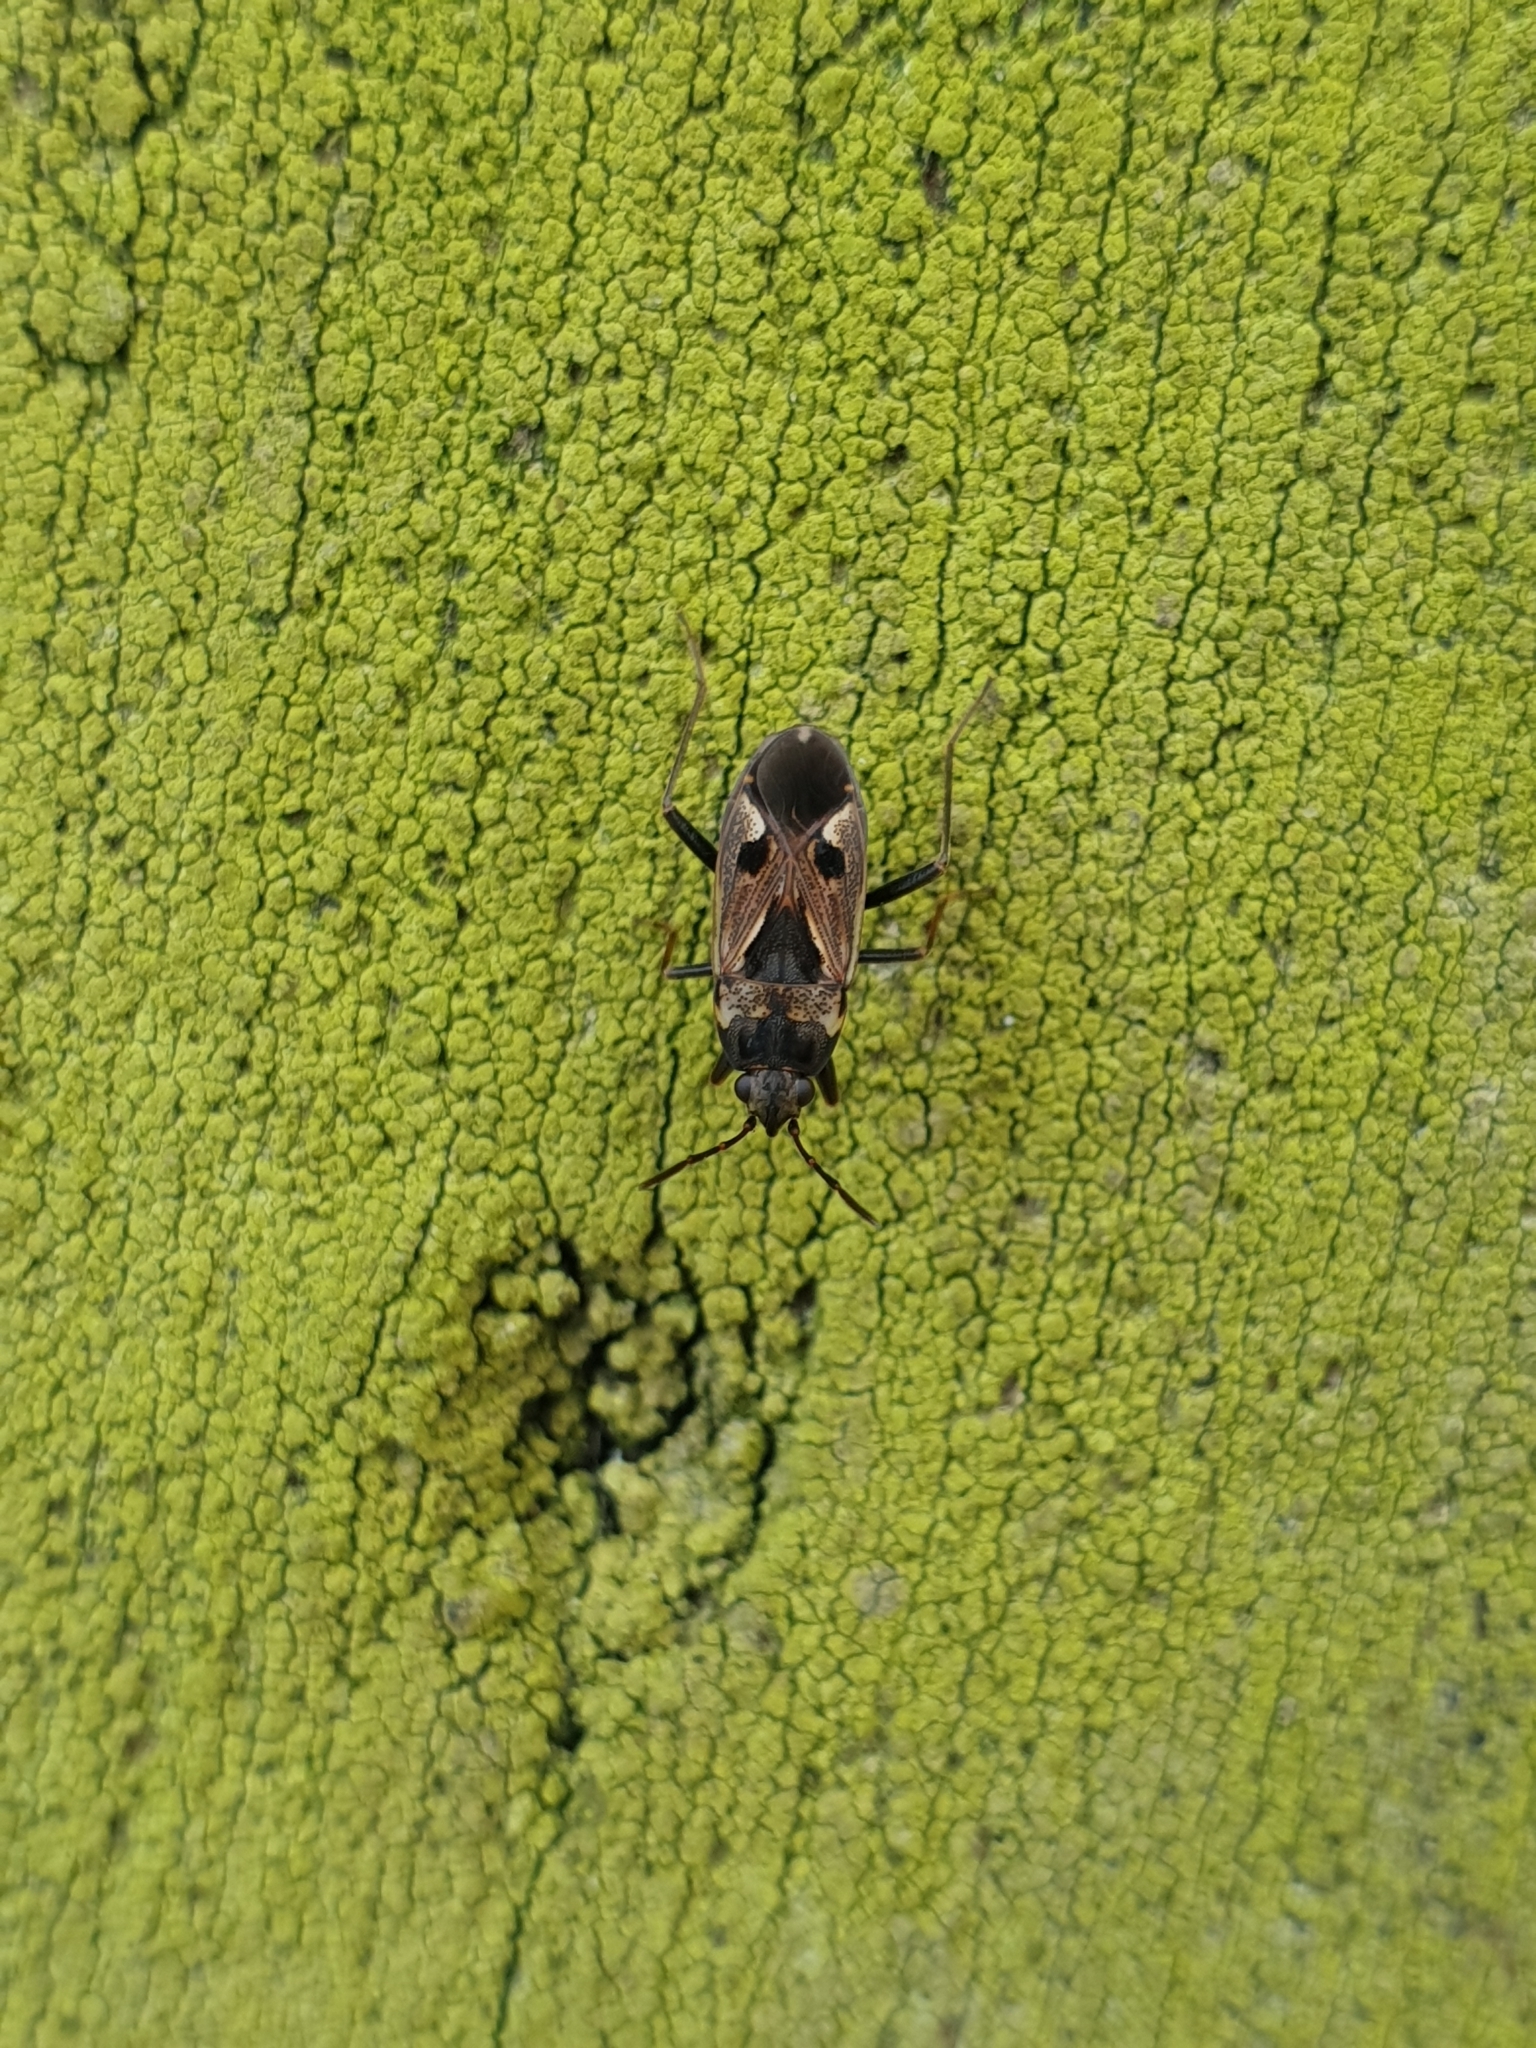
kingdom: Animalia
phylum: Arthropoda
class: Insecta
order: Hemiptera
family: Rhyparochromidae
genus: Rhyparochromus
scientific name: Rhyparochromus vulgaris
